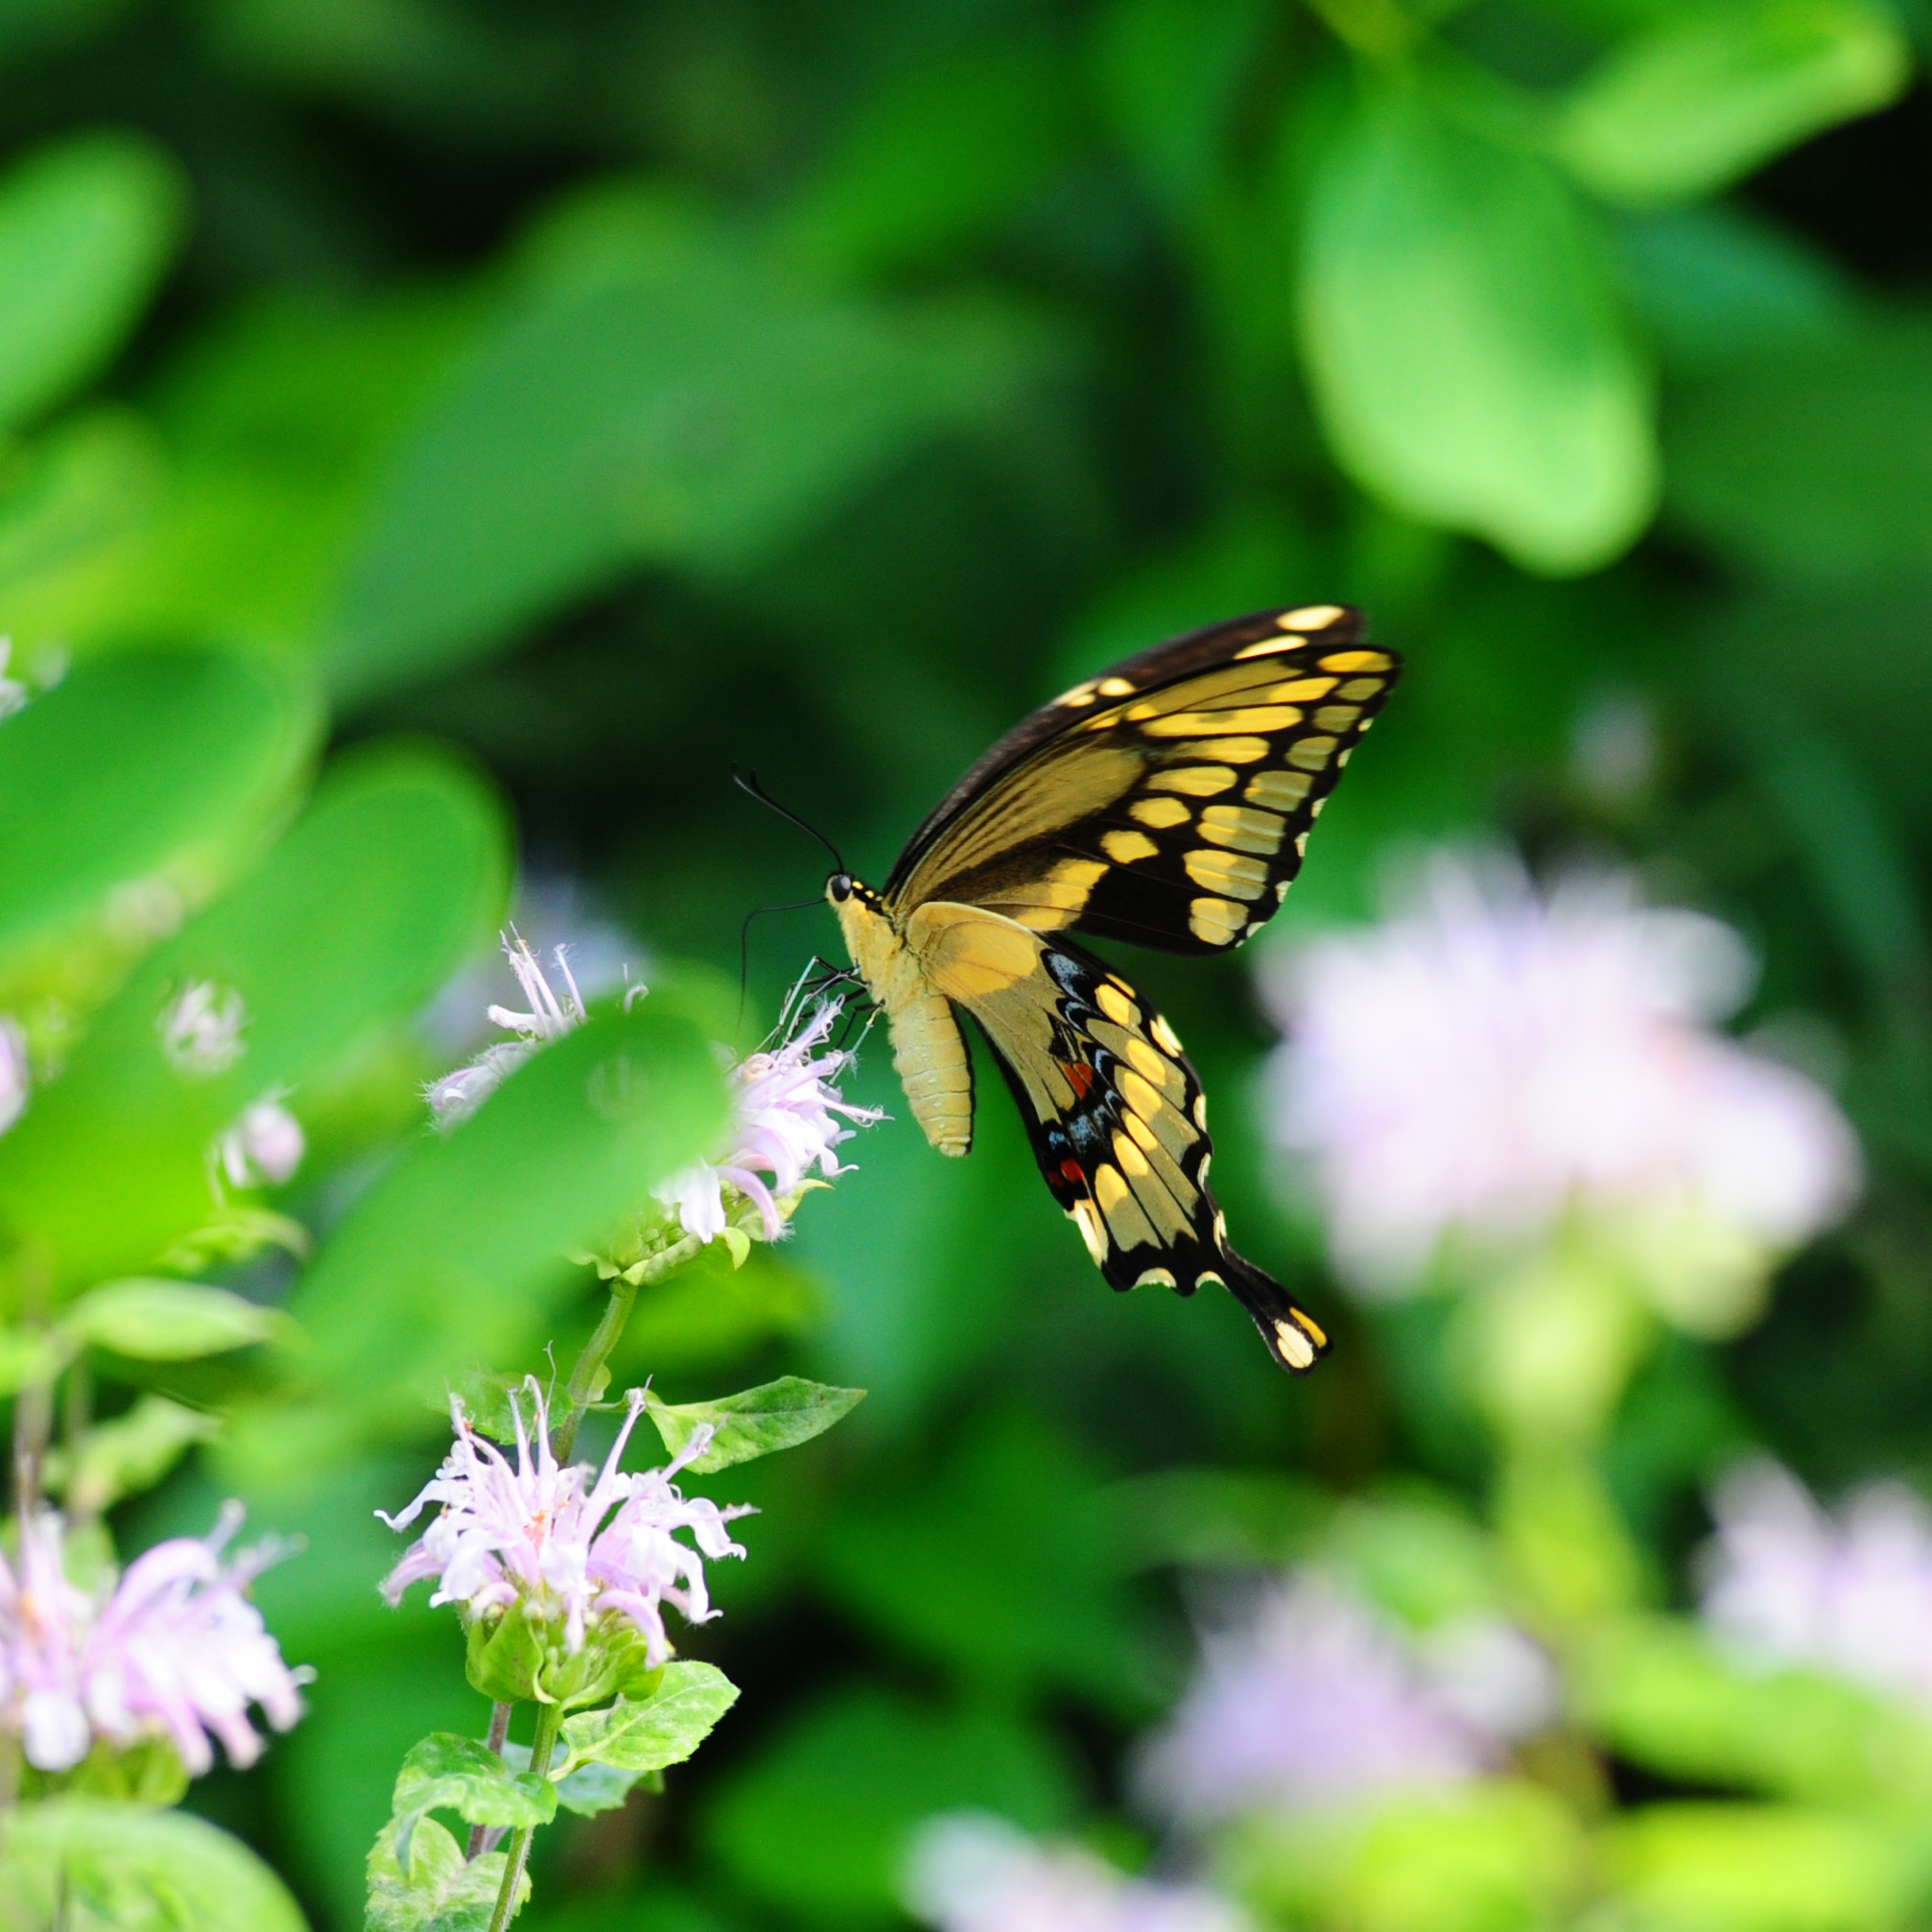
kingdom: Animalia
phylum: Arthropoda
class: Insecta
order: Lepidoptera
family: Papilionidae
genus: Papilio
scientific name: Papilio cresphontes
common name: Giant swallowtail
